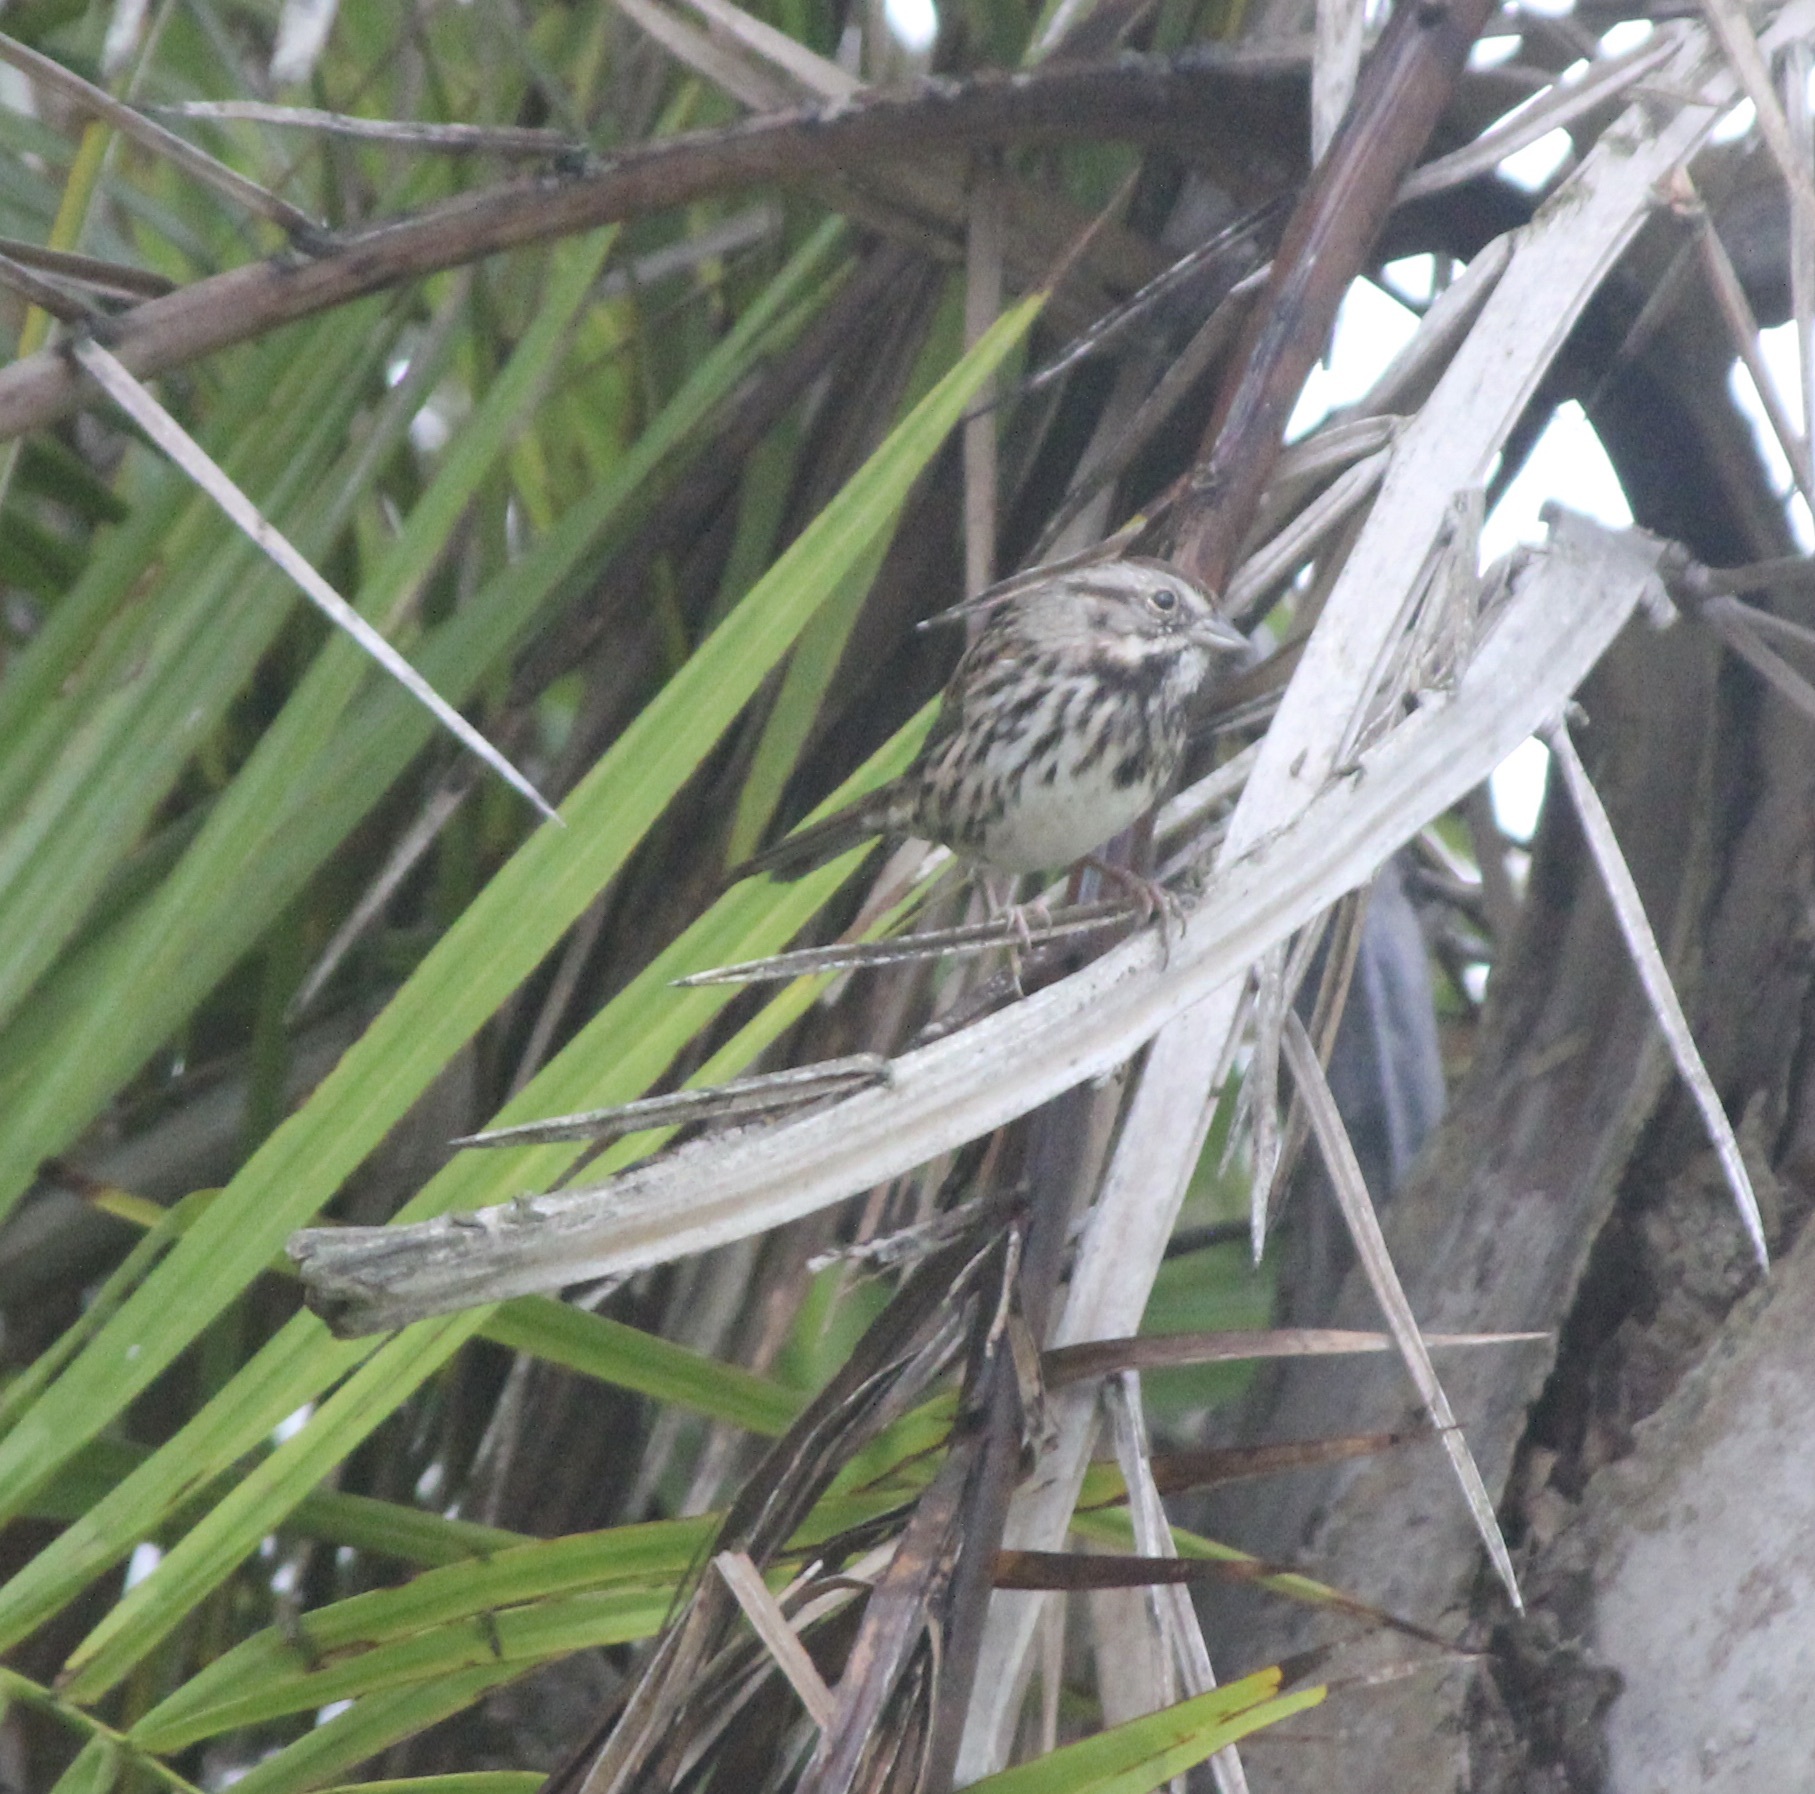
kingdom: Animalia
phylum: Chordata
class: Aves
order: Passeriformes
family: Passerellidae
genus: Melospiza
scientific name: Melospiza melodia
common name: Song sparrow
